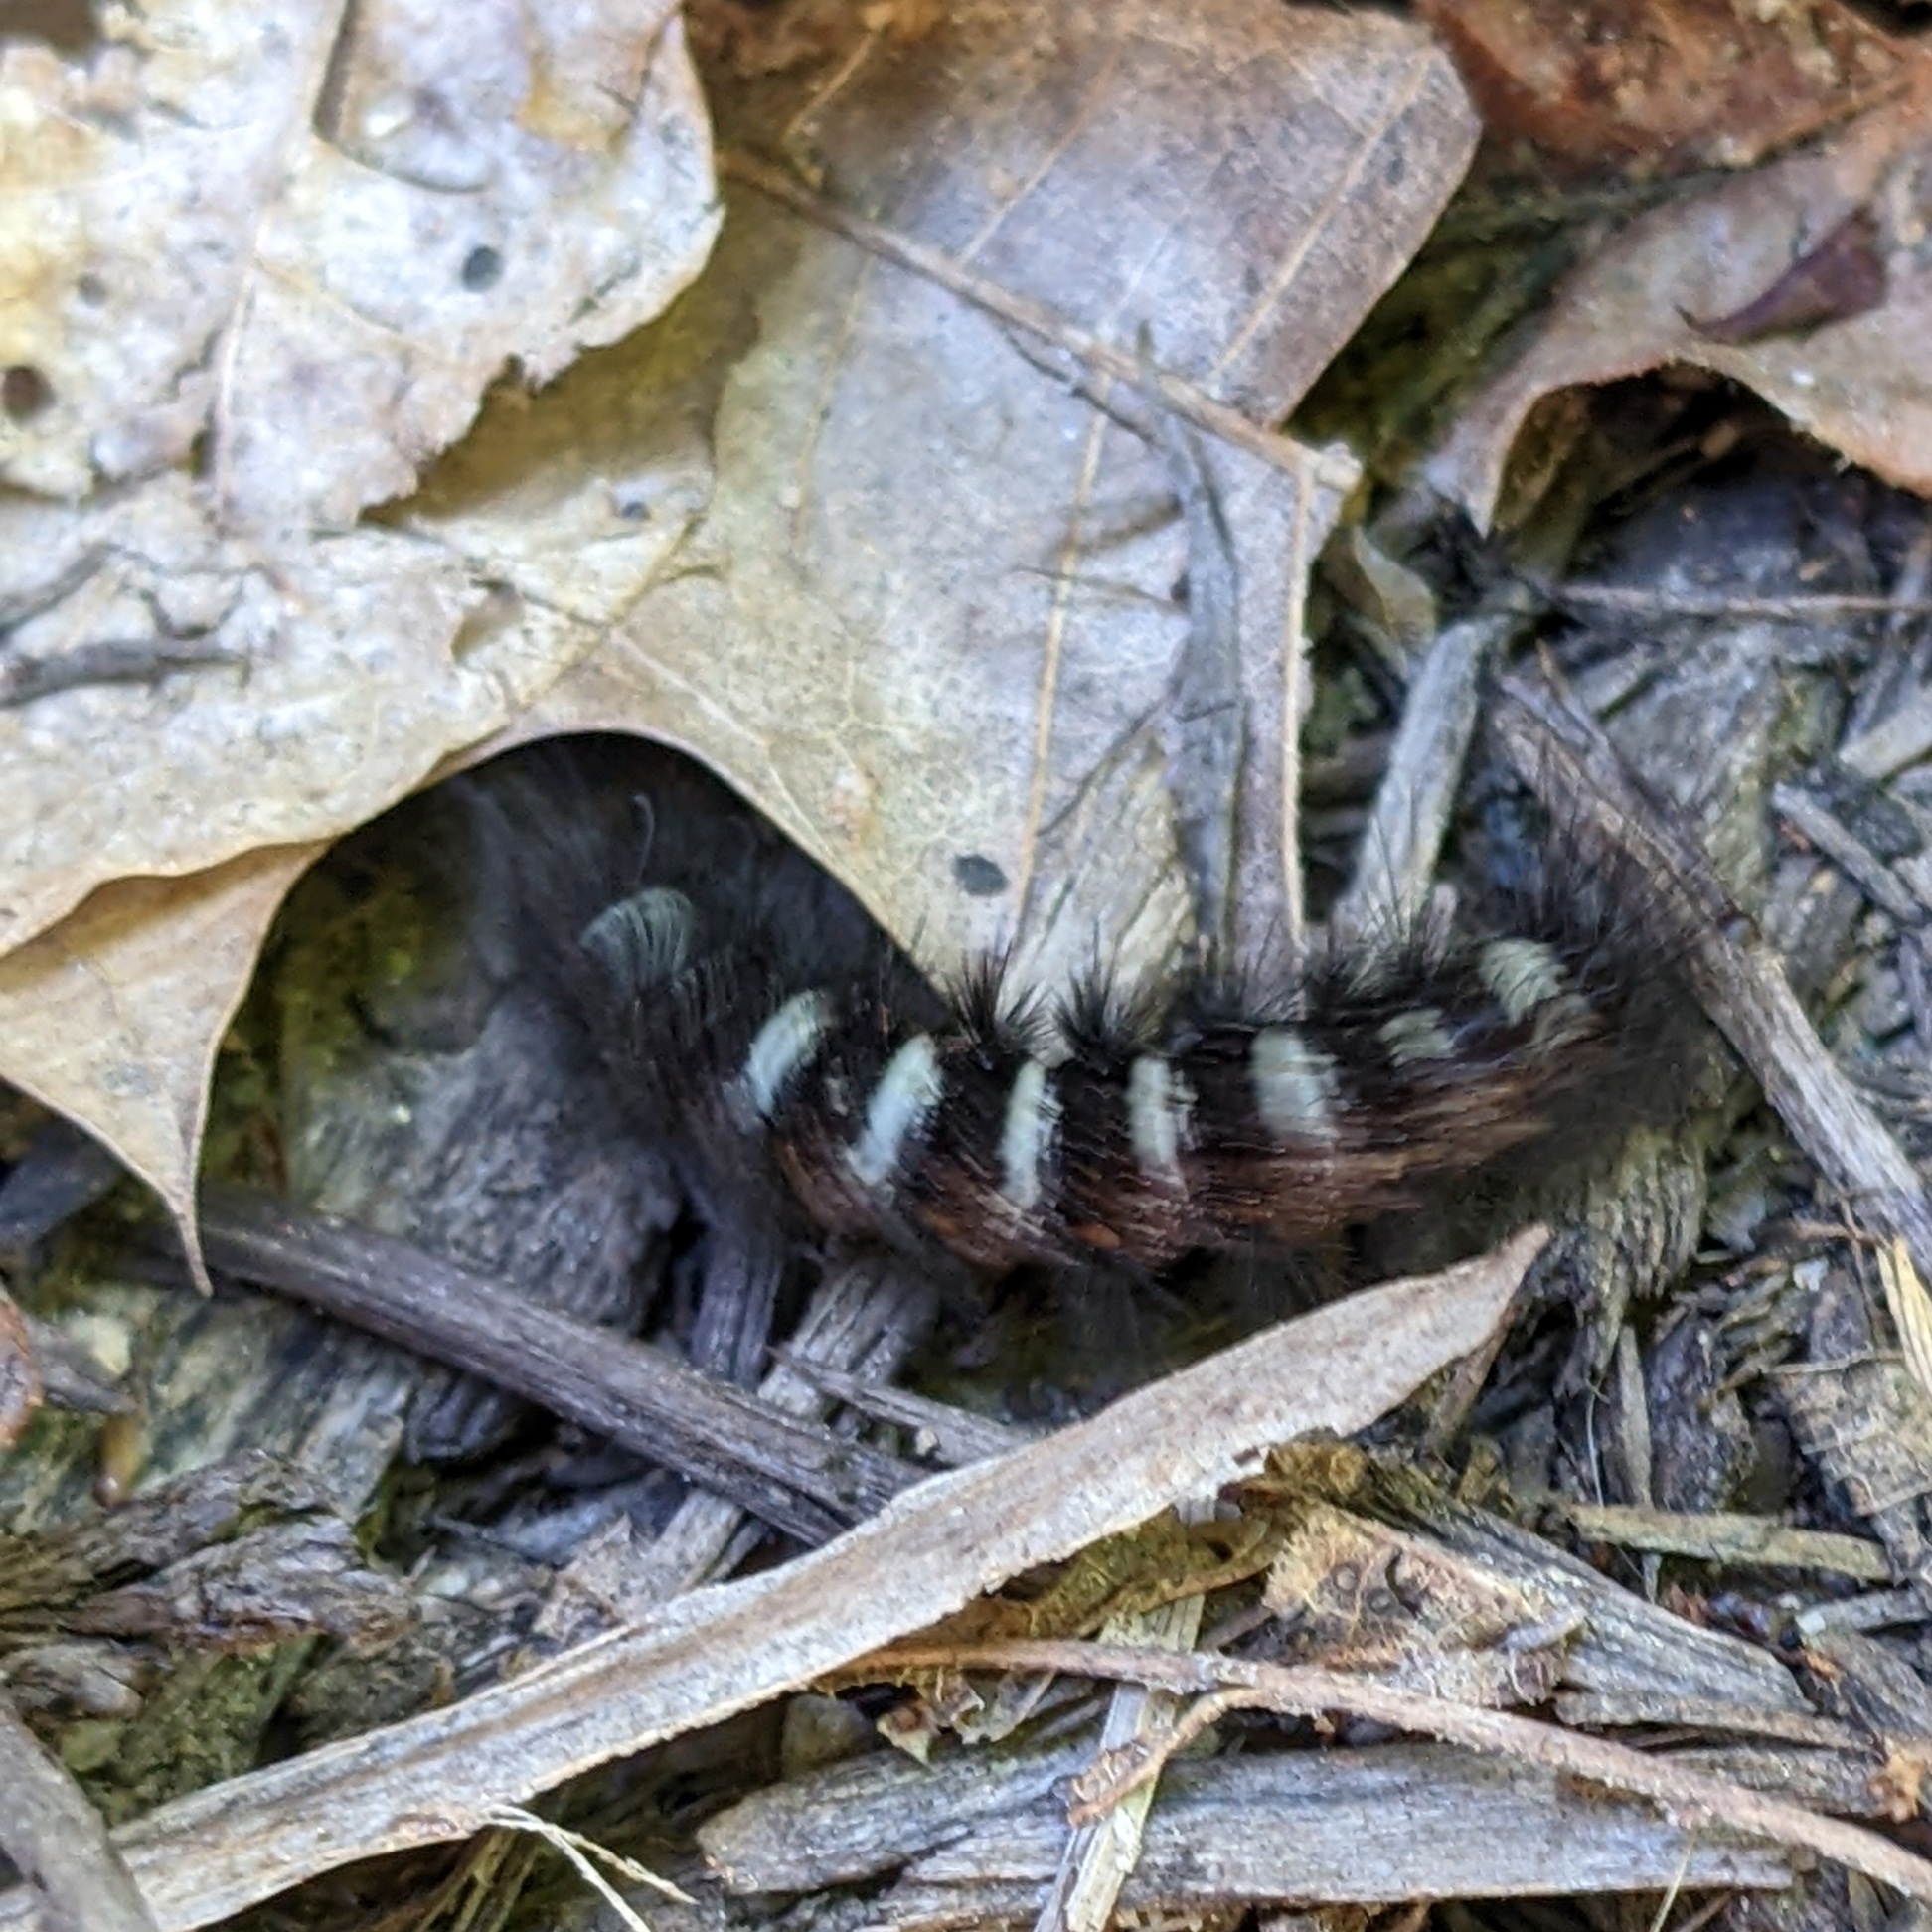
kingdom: Animalia
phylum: Arthropoda
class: Insecta
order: Lepidoptera
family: Erebidae
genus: Spilosoma
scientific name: Spilosoma congrua
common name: Agreeable tiger moth
